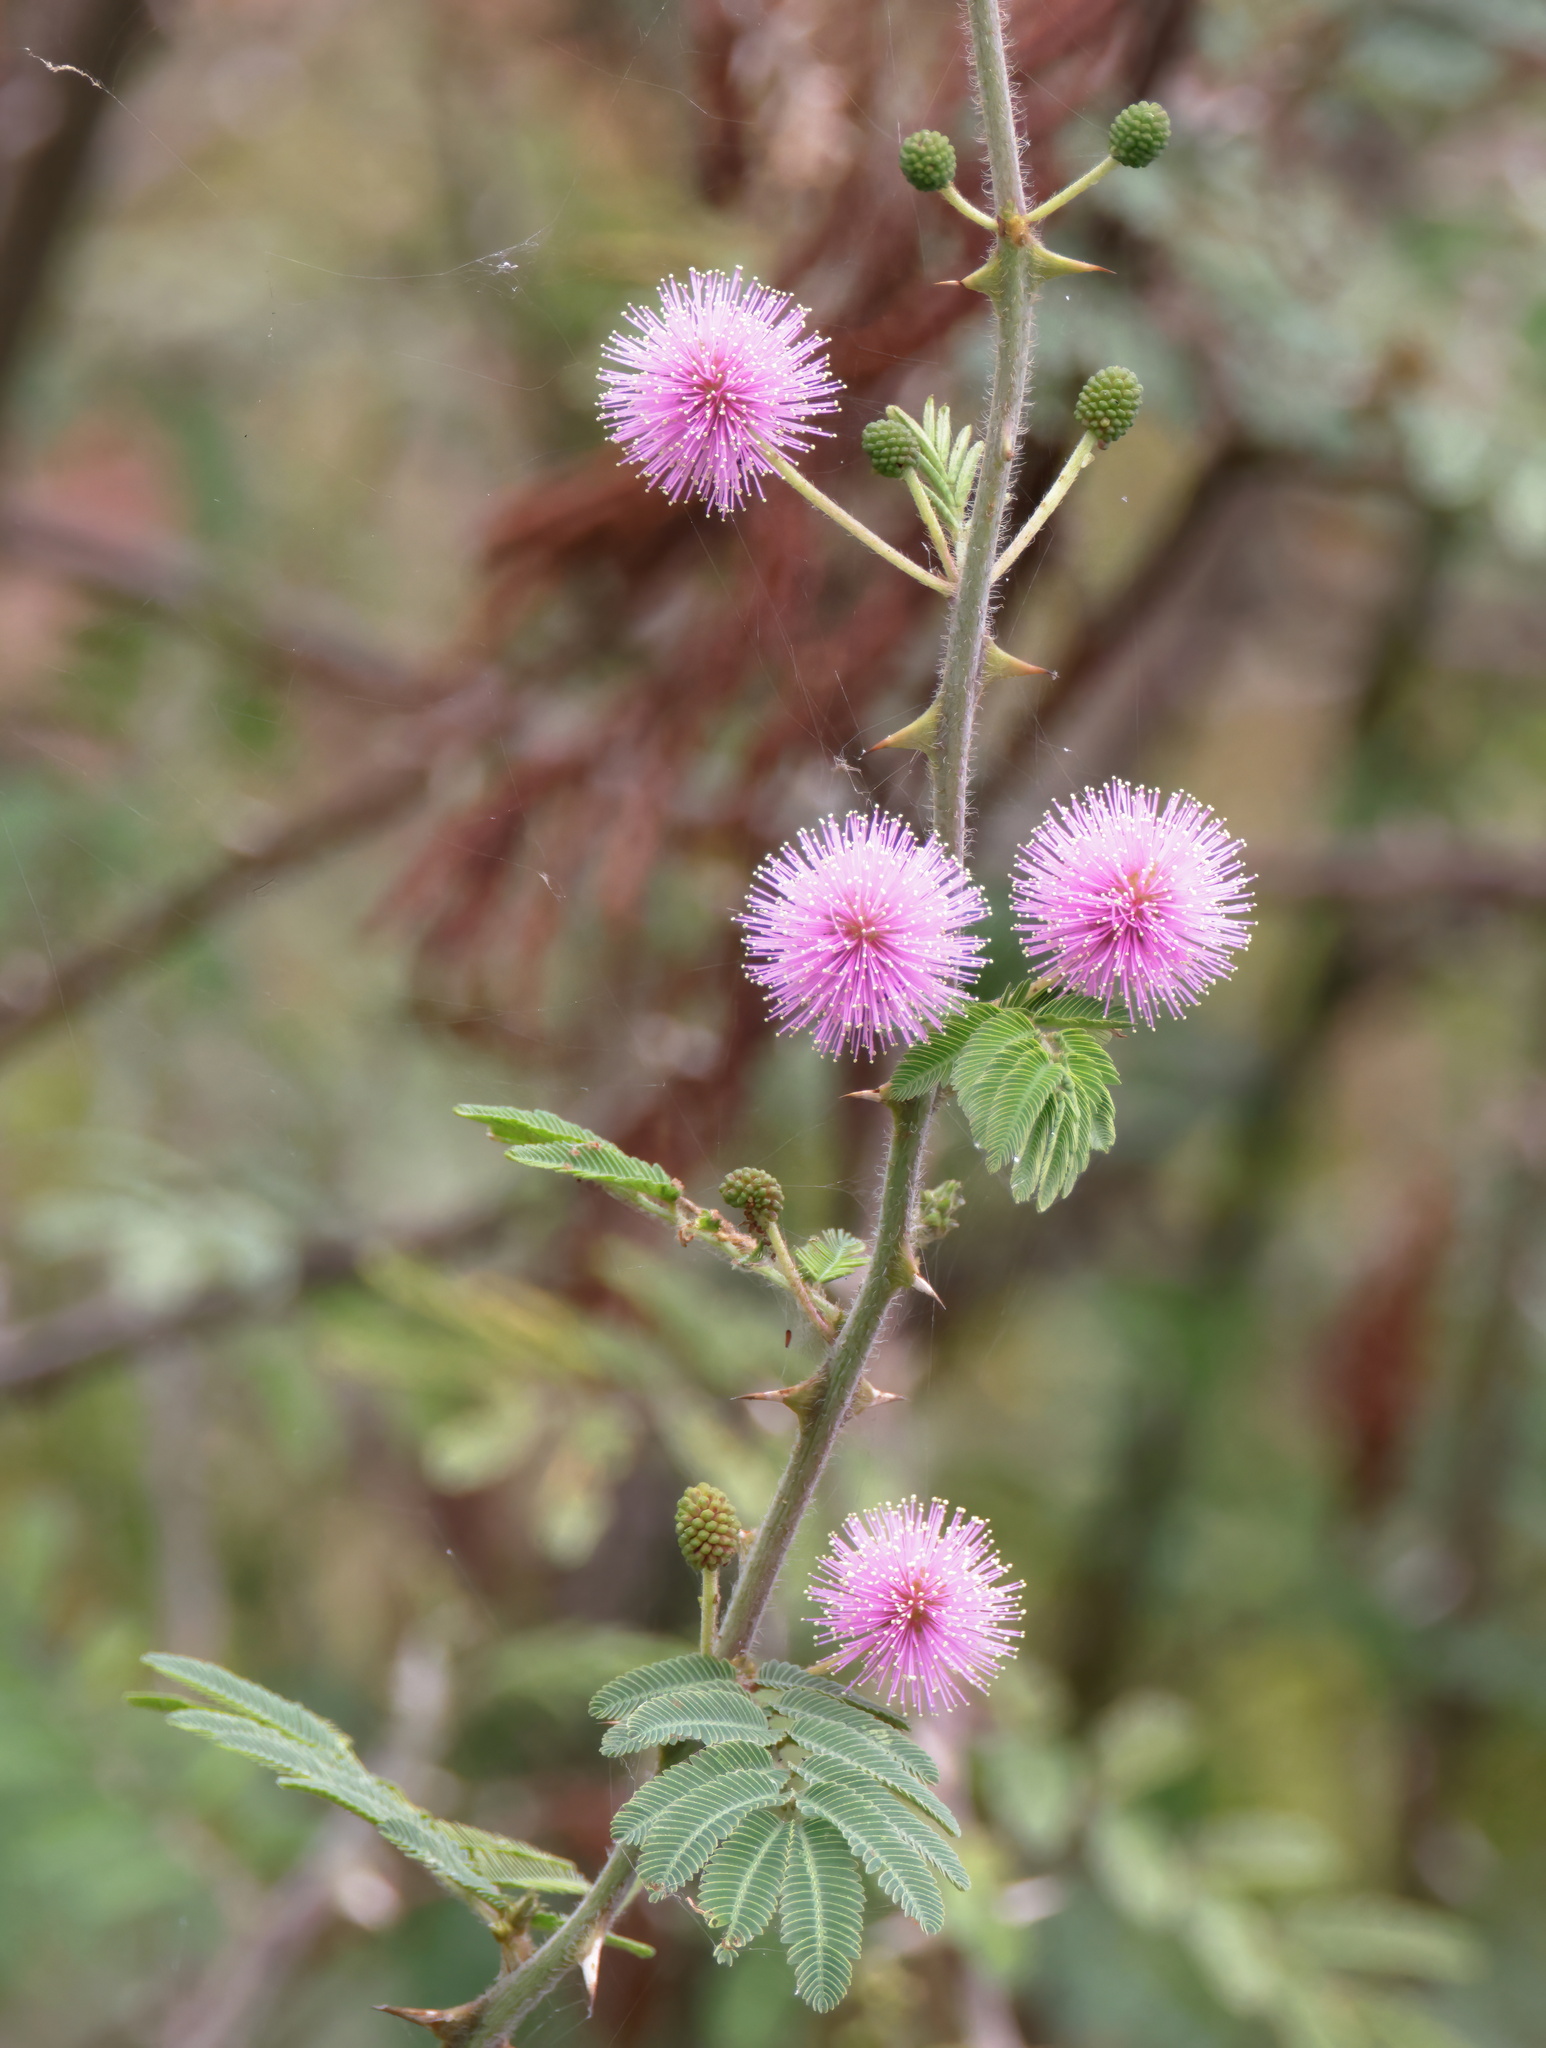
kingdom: Plantae
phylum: Tracheophyta
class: Magnoliopsida
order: Fabales
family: Fabaceae
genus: Mimosa
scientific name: Mimosa pigra
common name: Black mimosa
